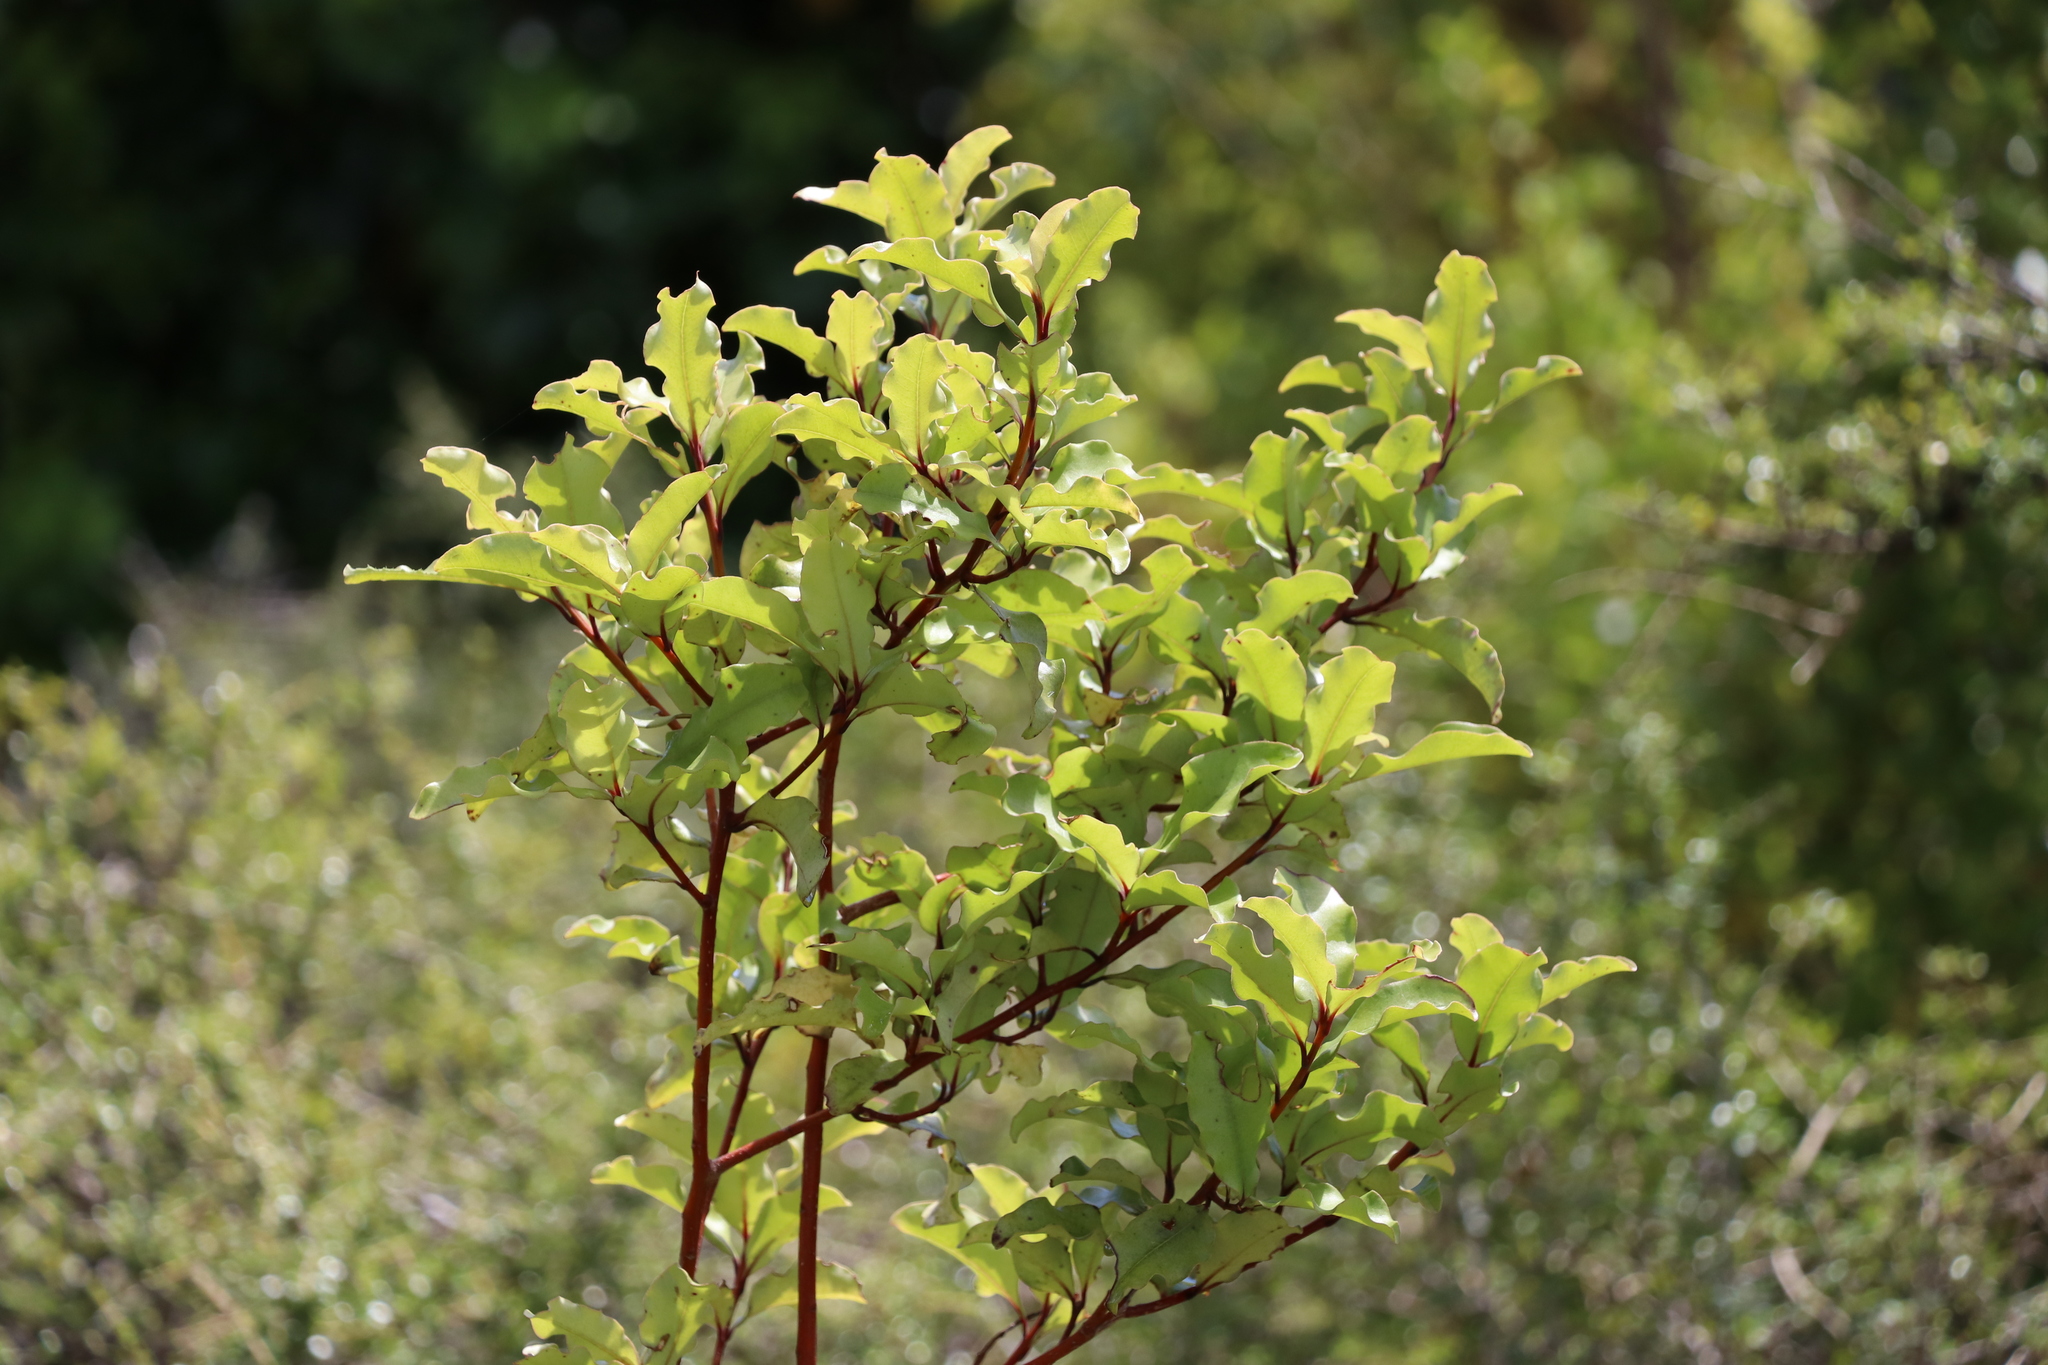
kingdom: Plantae
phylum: Tracheophyta
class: Magnoliopsida
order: Ericales
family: Primulaceae
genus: Myrsine
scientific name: Myrsine australis
